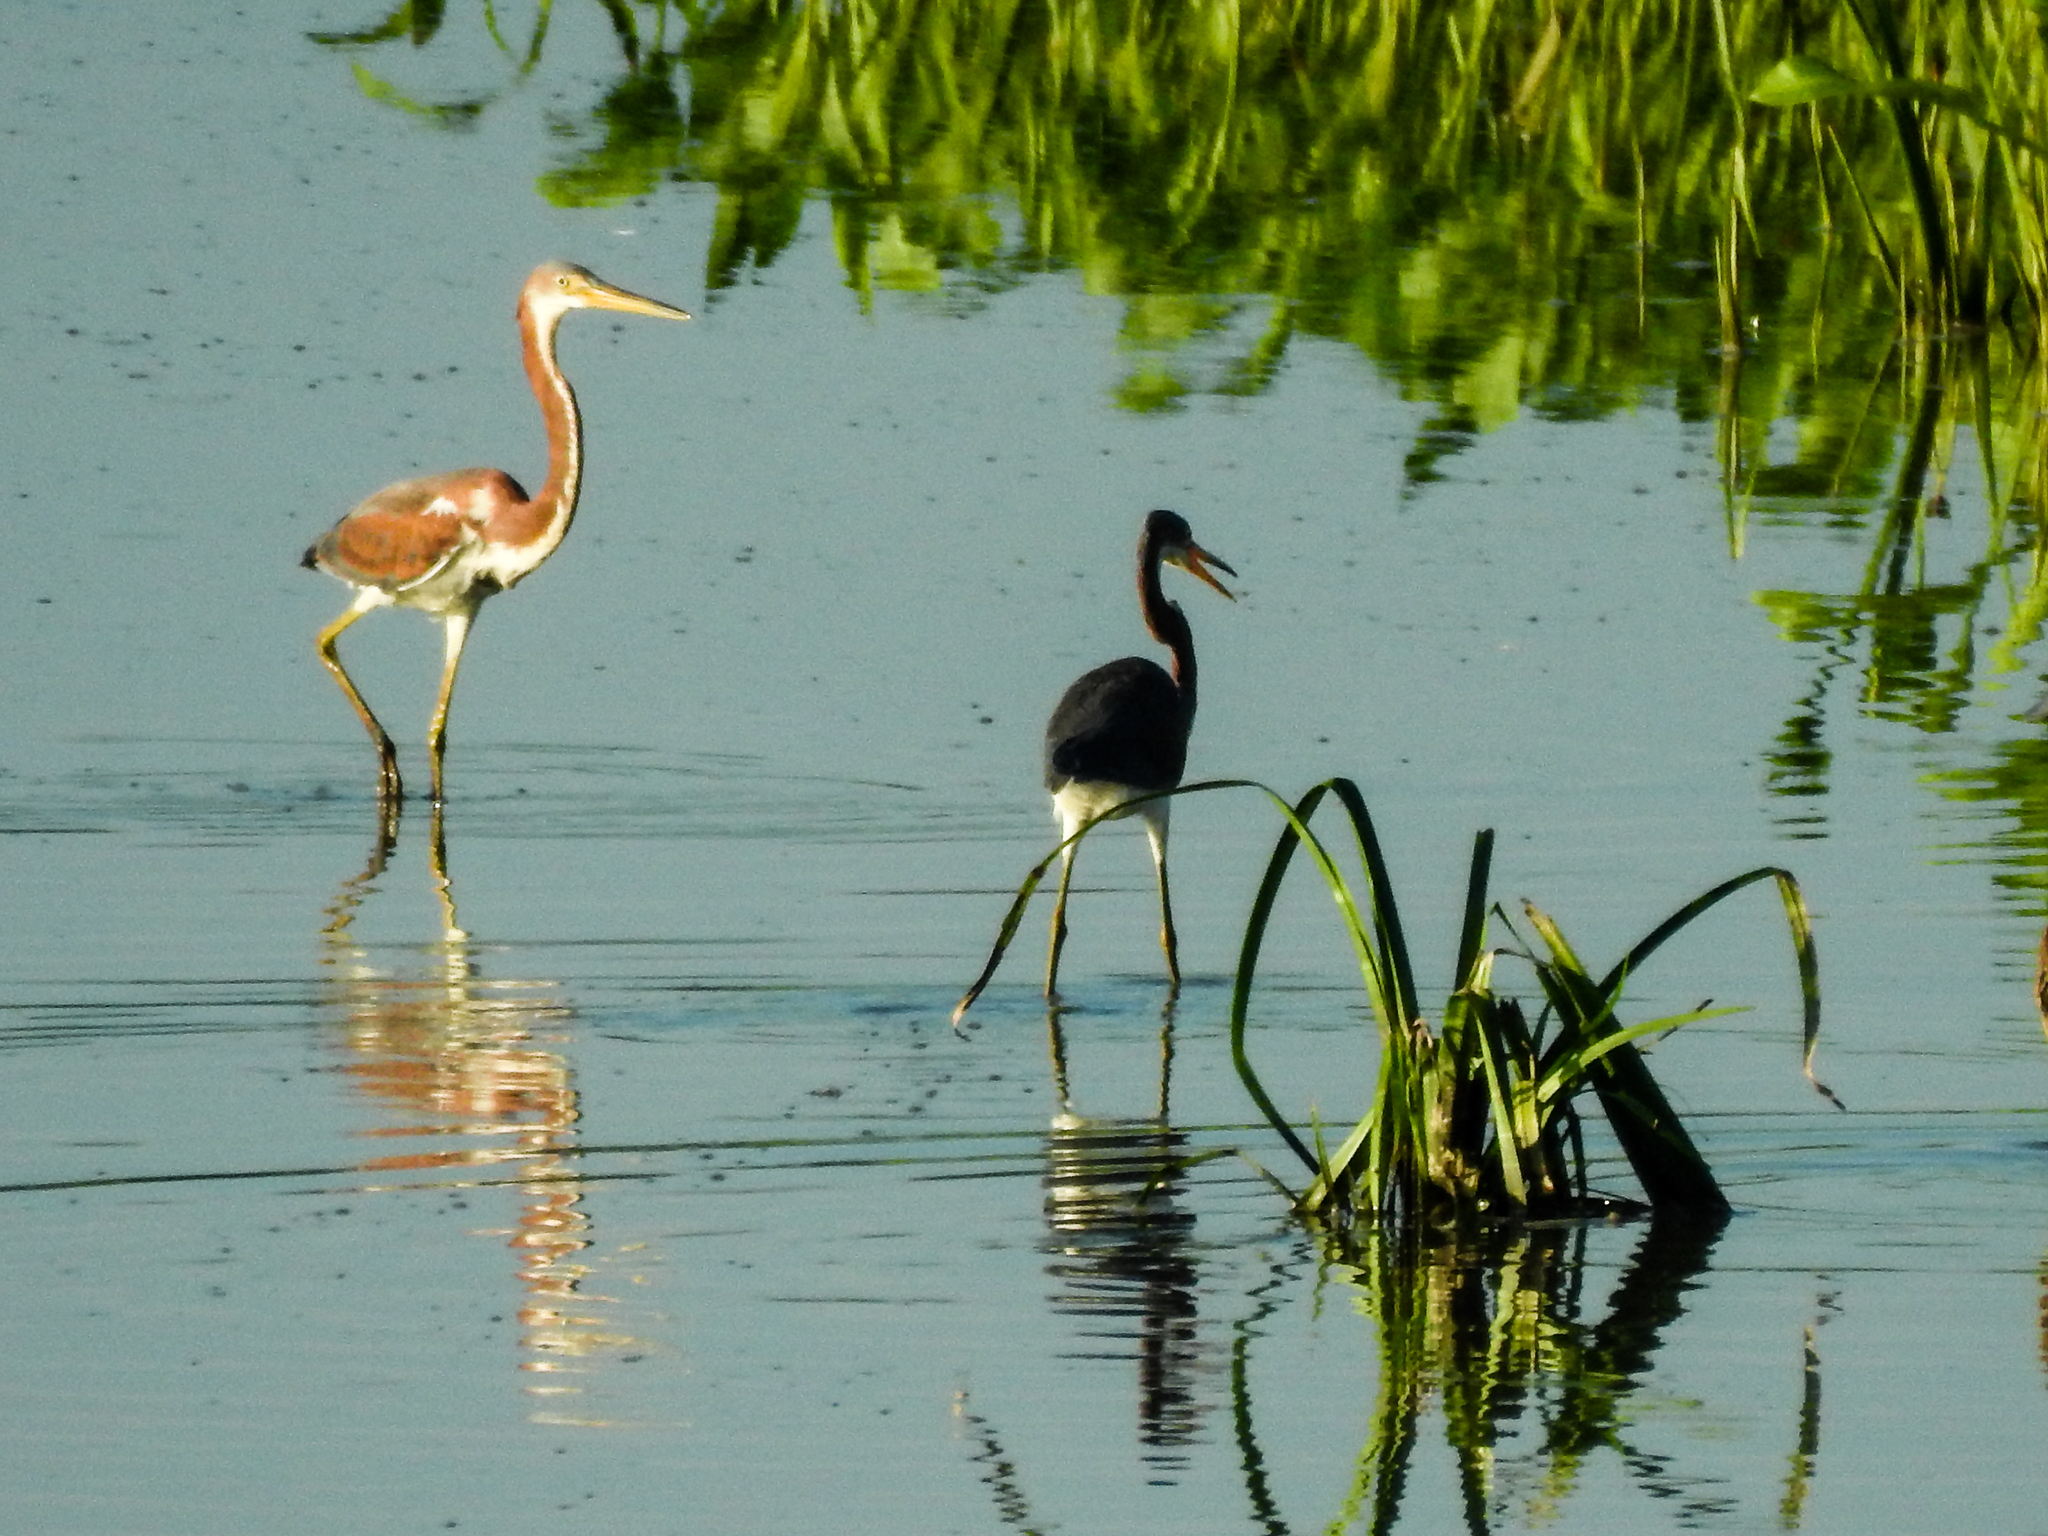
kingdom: Animalia
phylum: Chordata
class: Aves
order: Pelecaniformes
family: Ardeidae
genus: Egretta
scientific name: Egretta tricolor
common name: Tricolored heron
